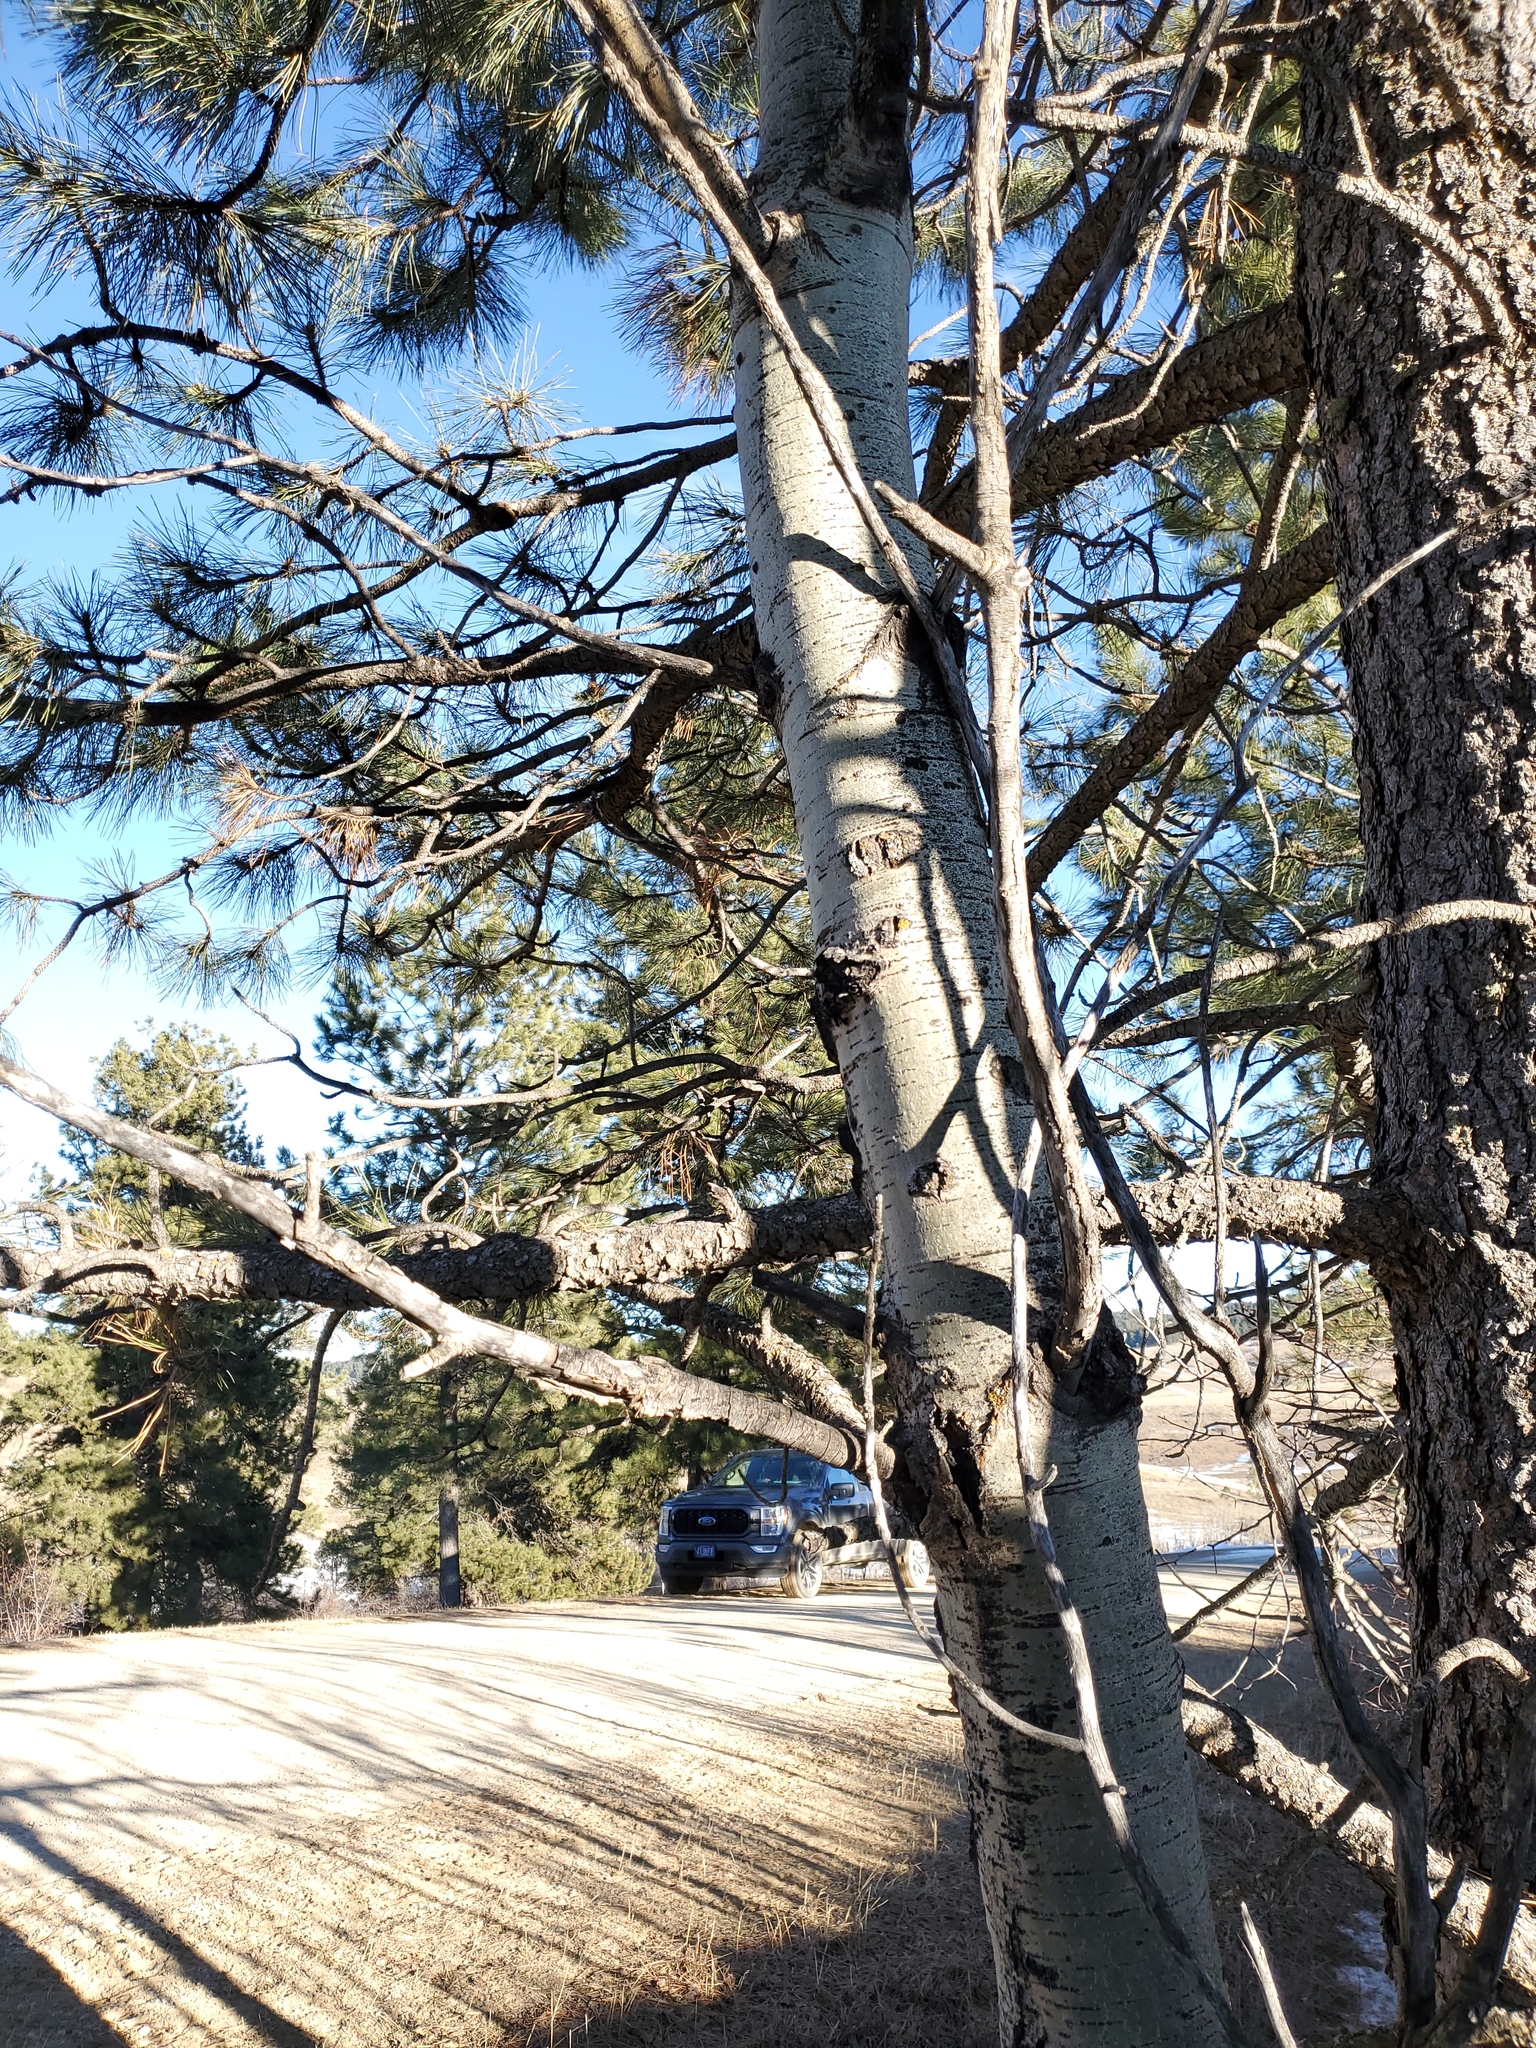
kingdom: Plantae
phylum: Tracheophyta
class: Magnoliopsida
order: Malpighiales
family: Salicaceae
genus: Populus
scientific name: Populus tremuloides
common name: Quaking aspen
